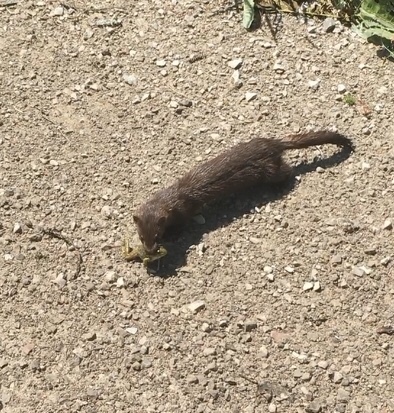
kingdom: Animalia
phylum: Chordata
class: Mammalia
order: Carnivora
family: Mustelidae
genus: Mustela
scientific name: Mustela
